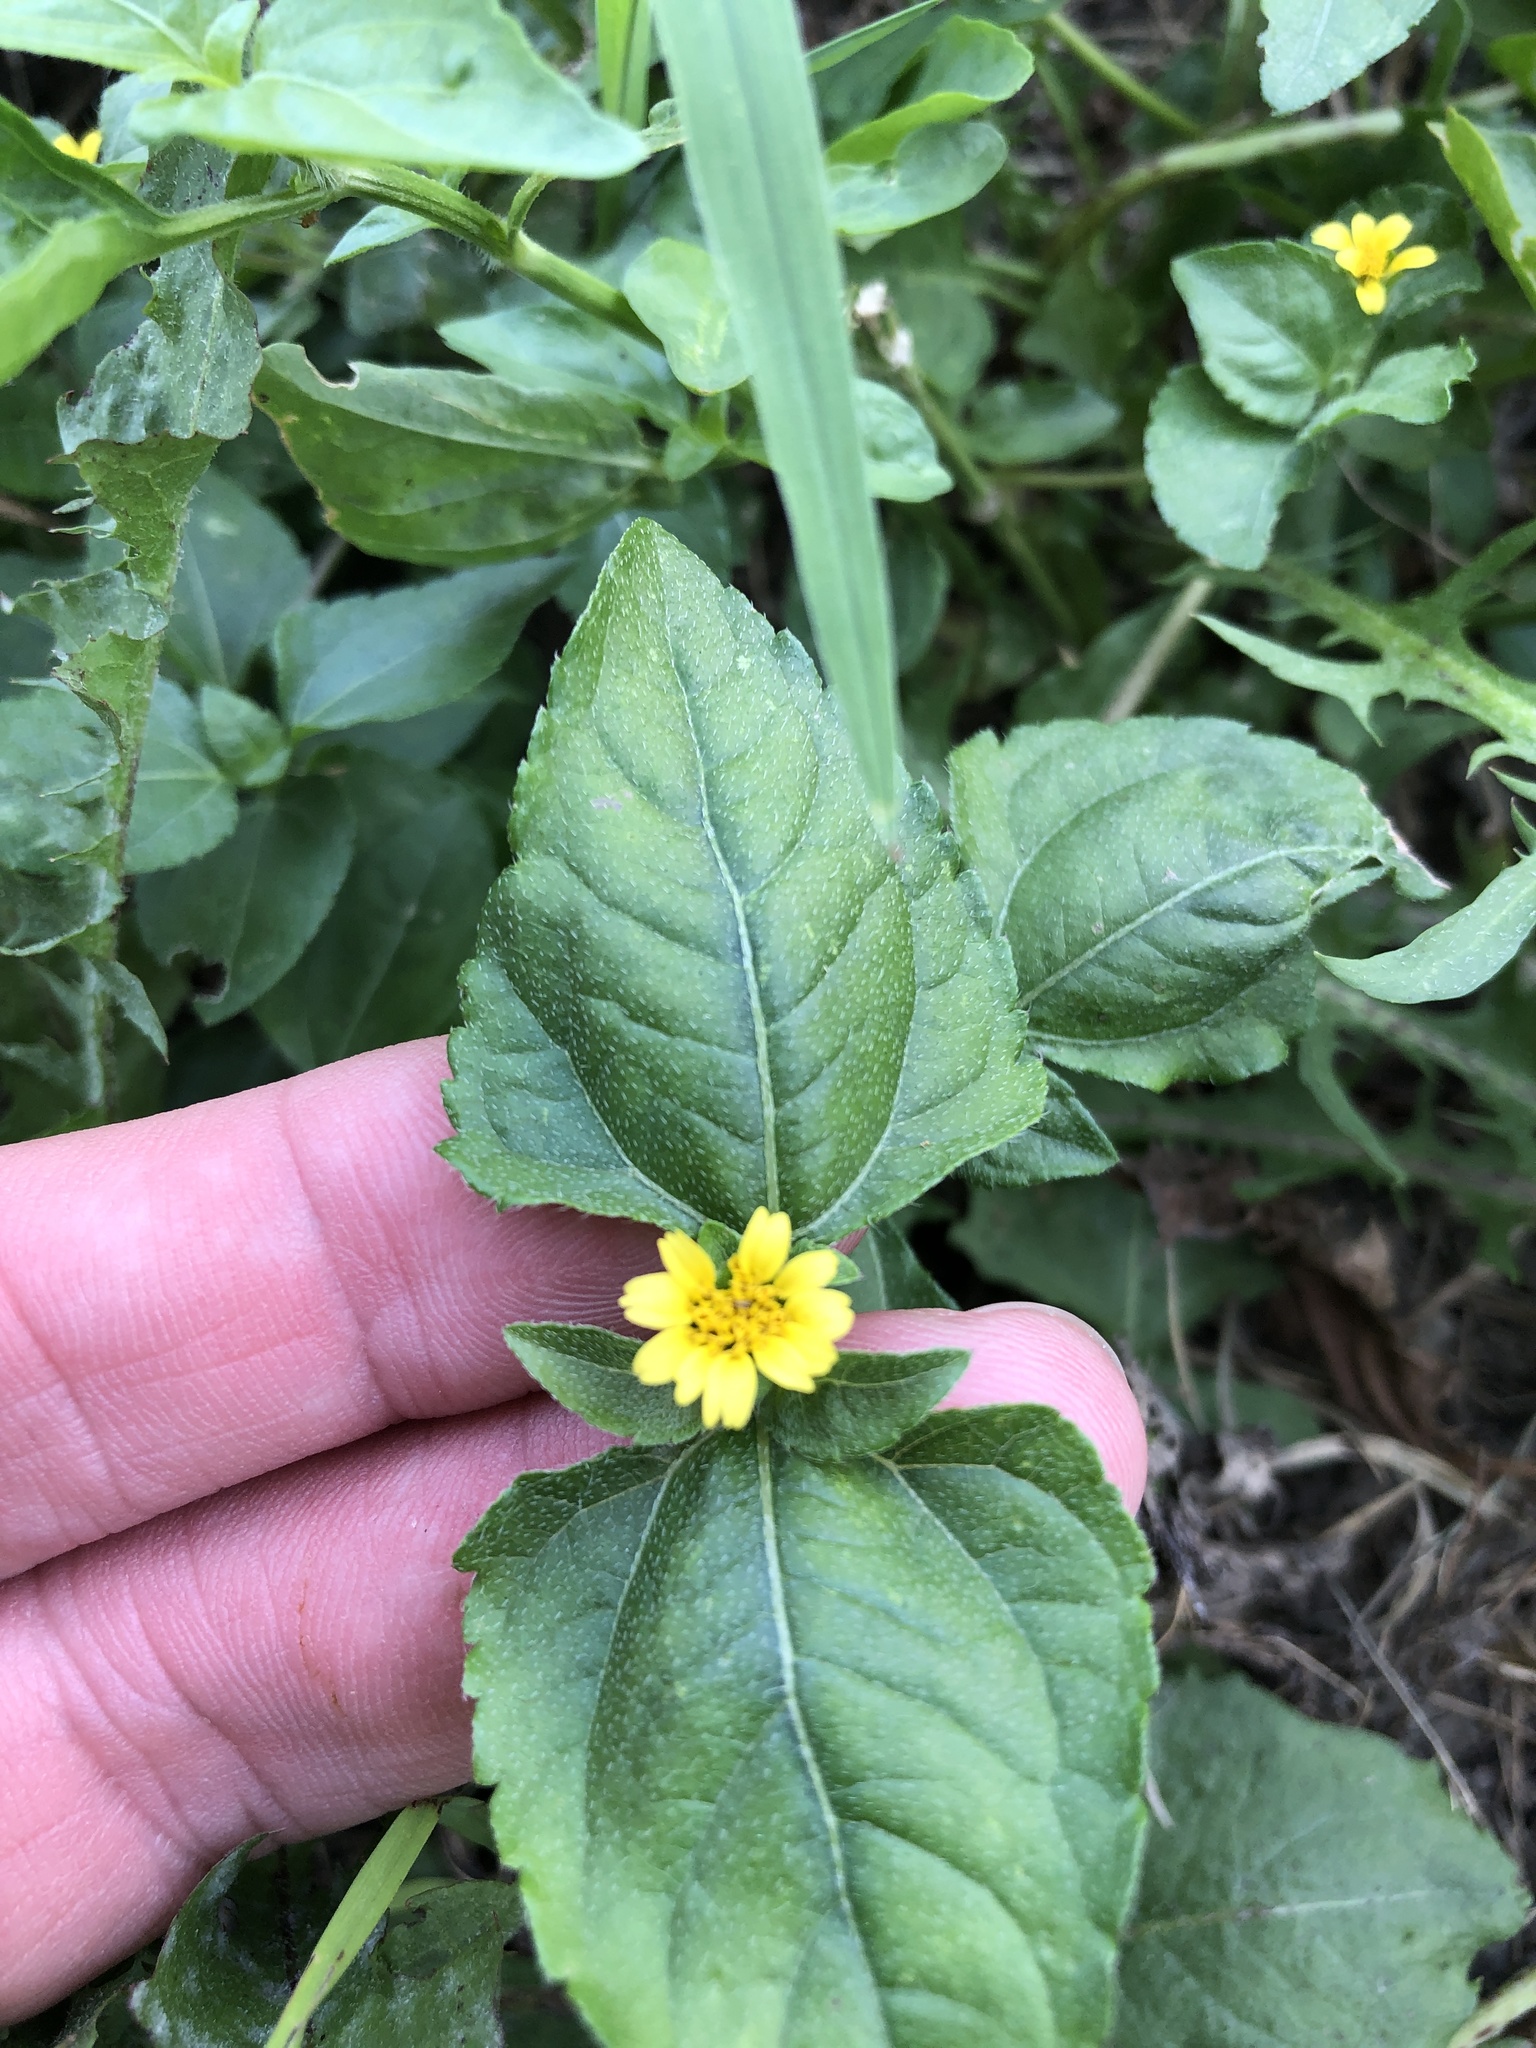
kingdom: Plantae
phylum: Tracheophyta
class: Magnoliopsida
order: Asterales
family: Asteraceae
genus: Calyptocarpus
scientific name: Calyptocarpus vialis
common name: Straggler daisy
